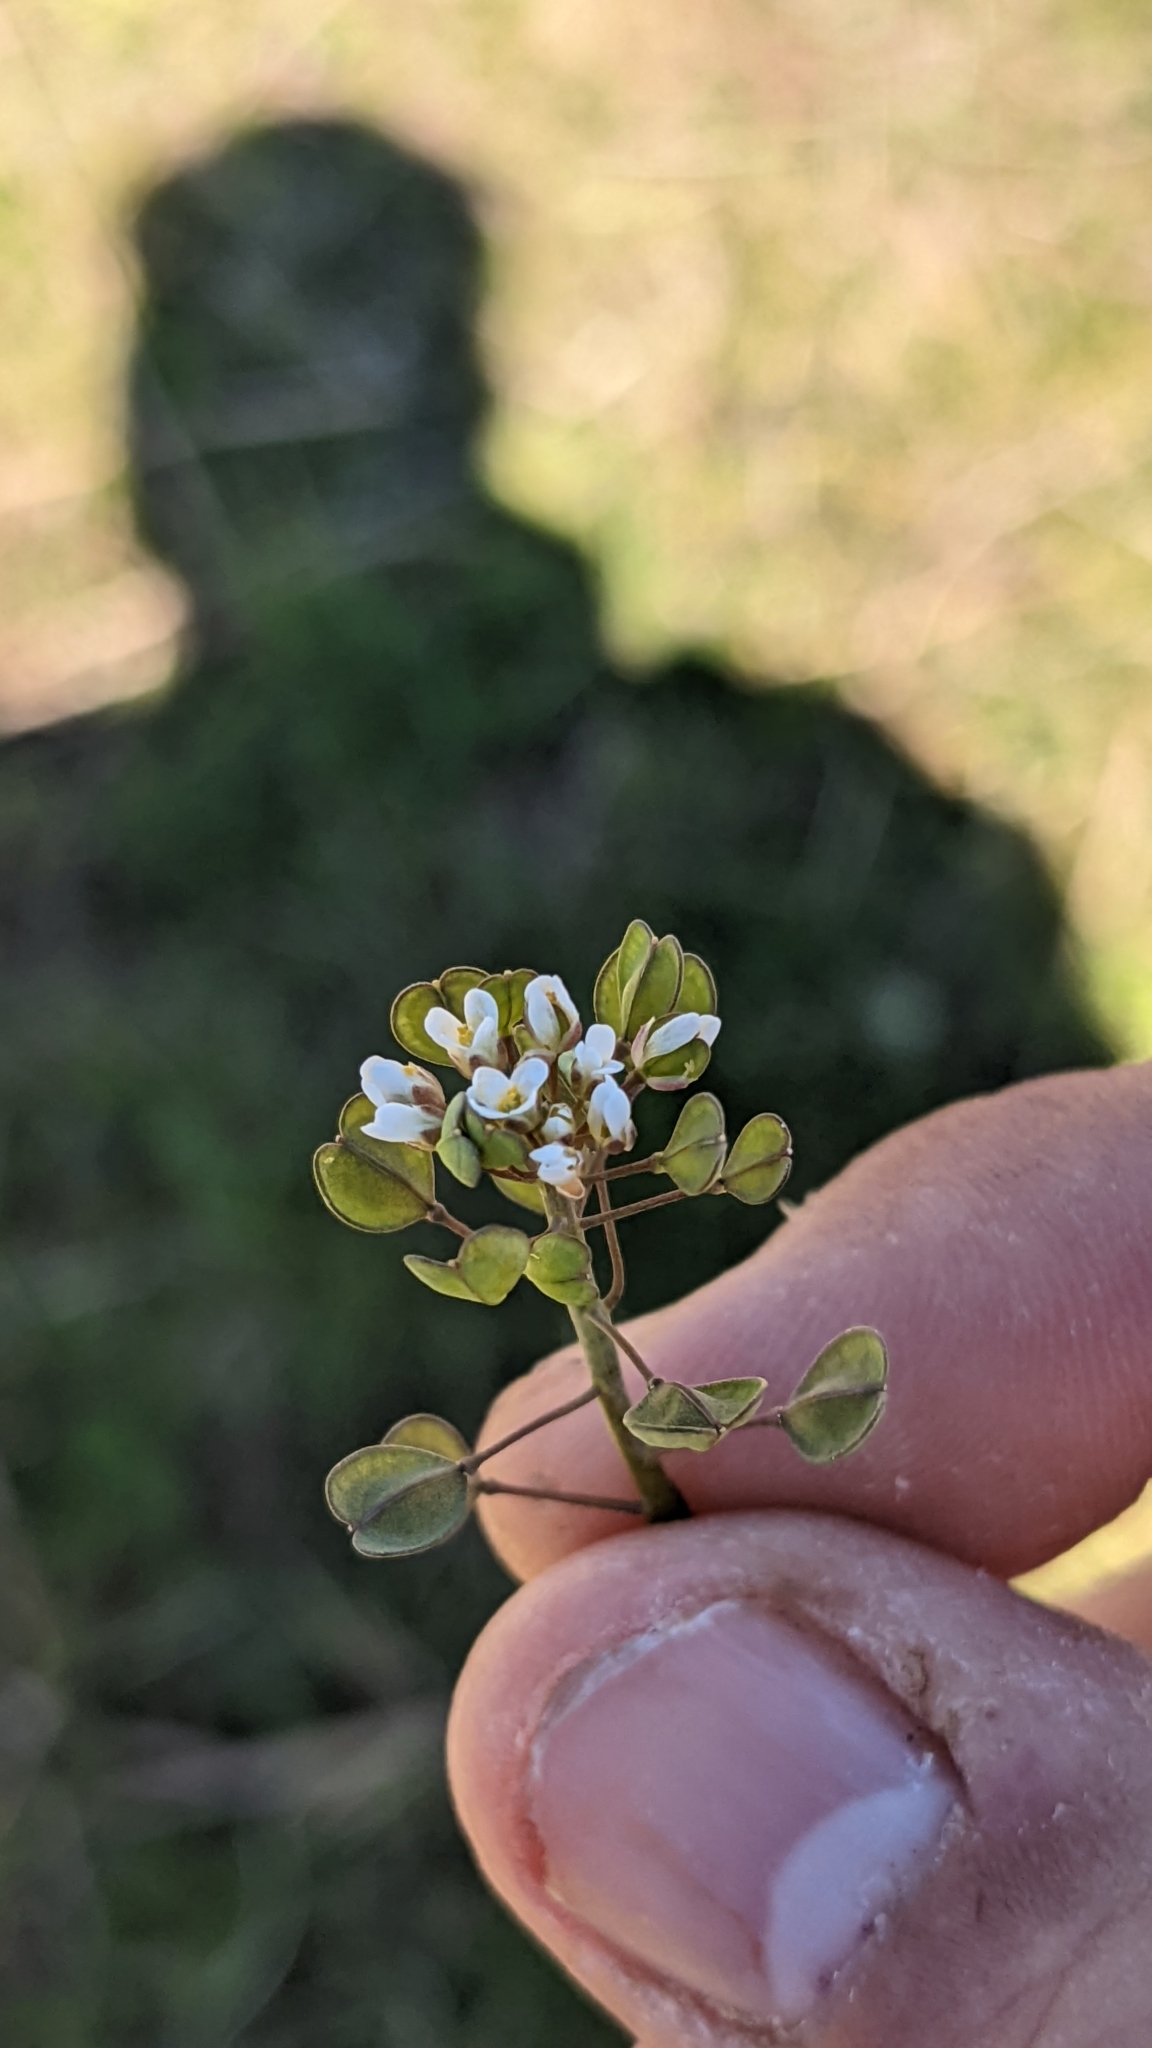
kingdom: Plantae
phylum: Tracheophyta
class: Magnoliopsida
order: Brassicales
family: Brassicaceae
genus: Noccaea
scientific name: Noccaea perfoliata
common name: Perfoliate pennycress
